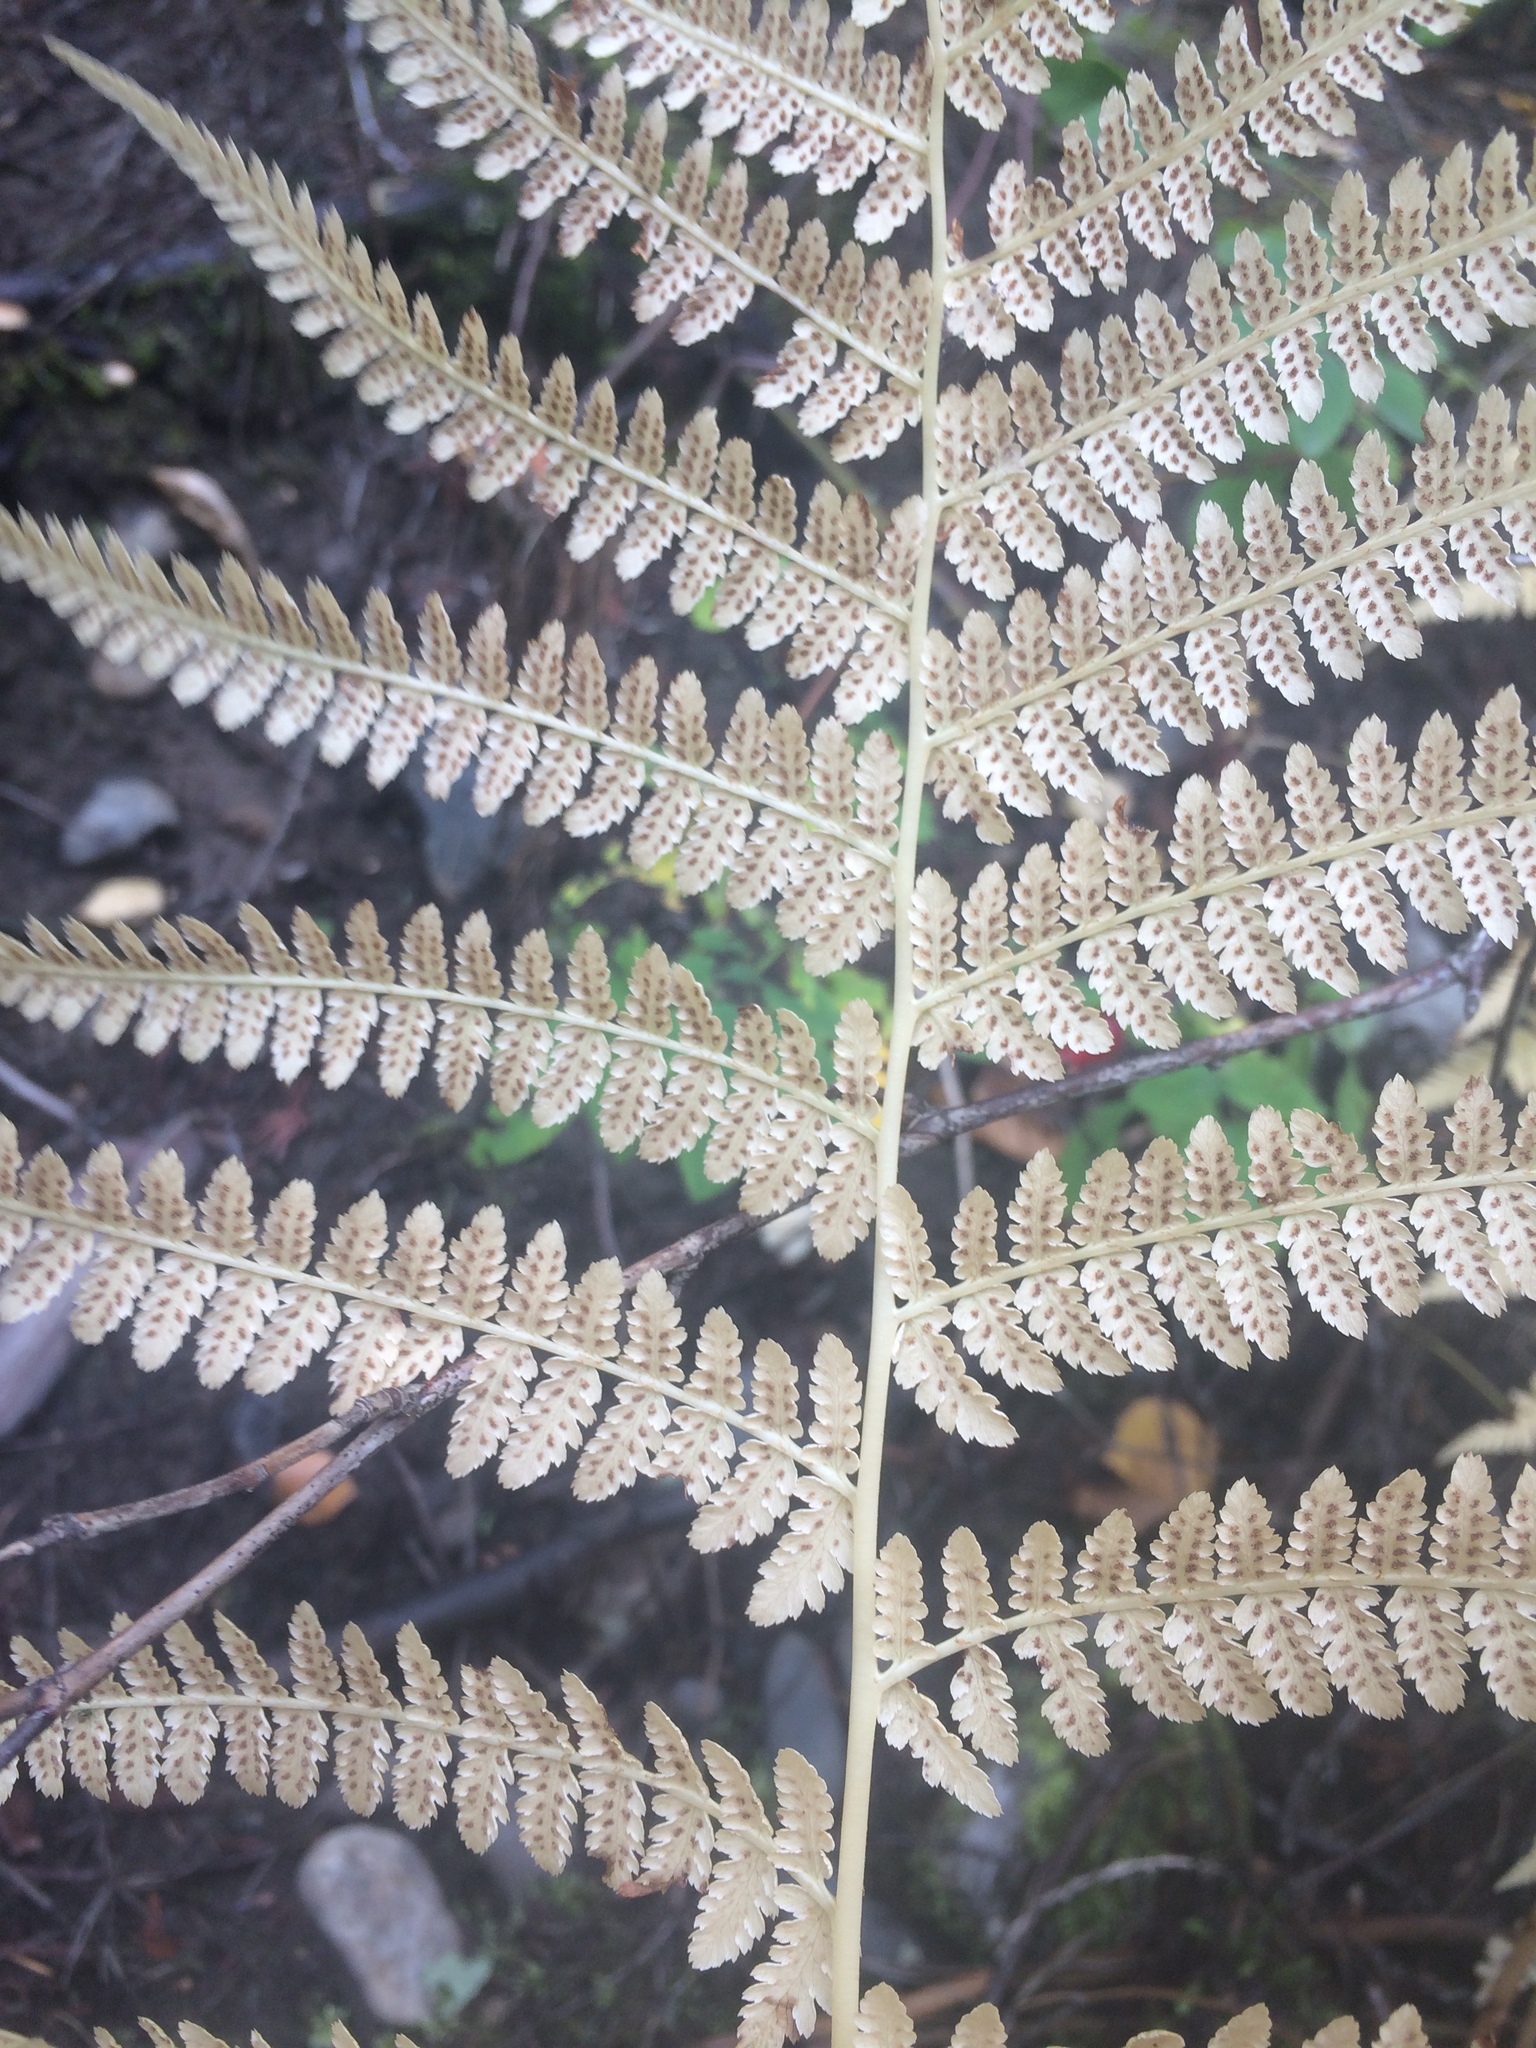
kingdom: Plantae
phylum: Tracheophyta
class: Polypodiopsida
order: Polypodiales
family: Athyriaceae
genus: Athyrium
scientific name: Athyrium filix-femina
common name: Lady fern
